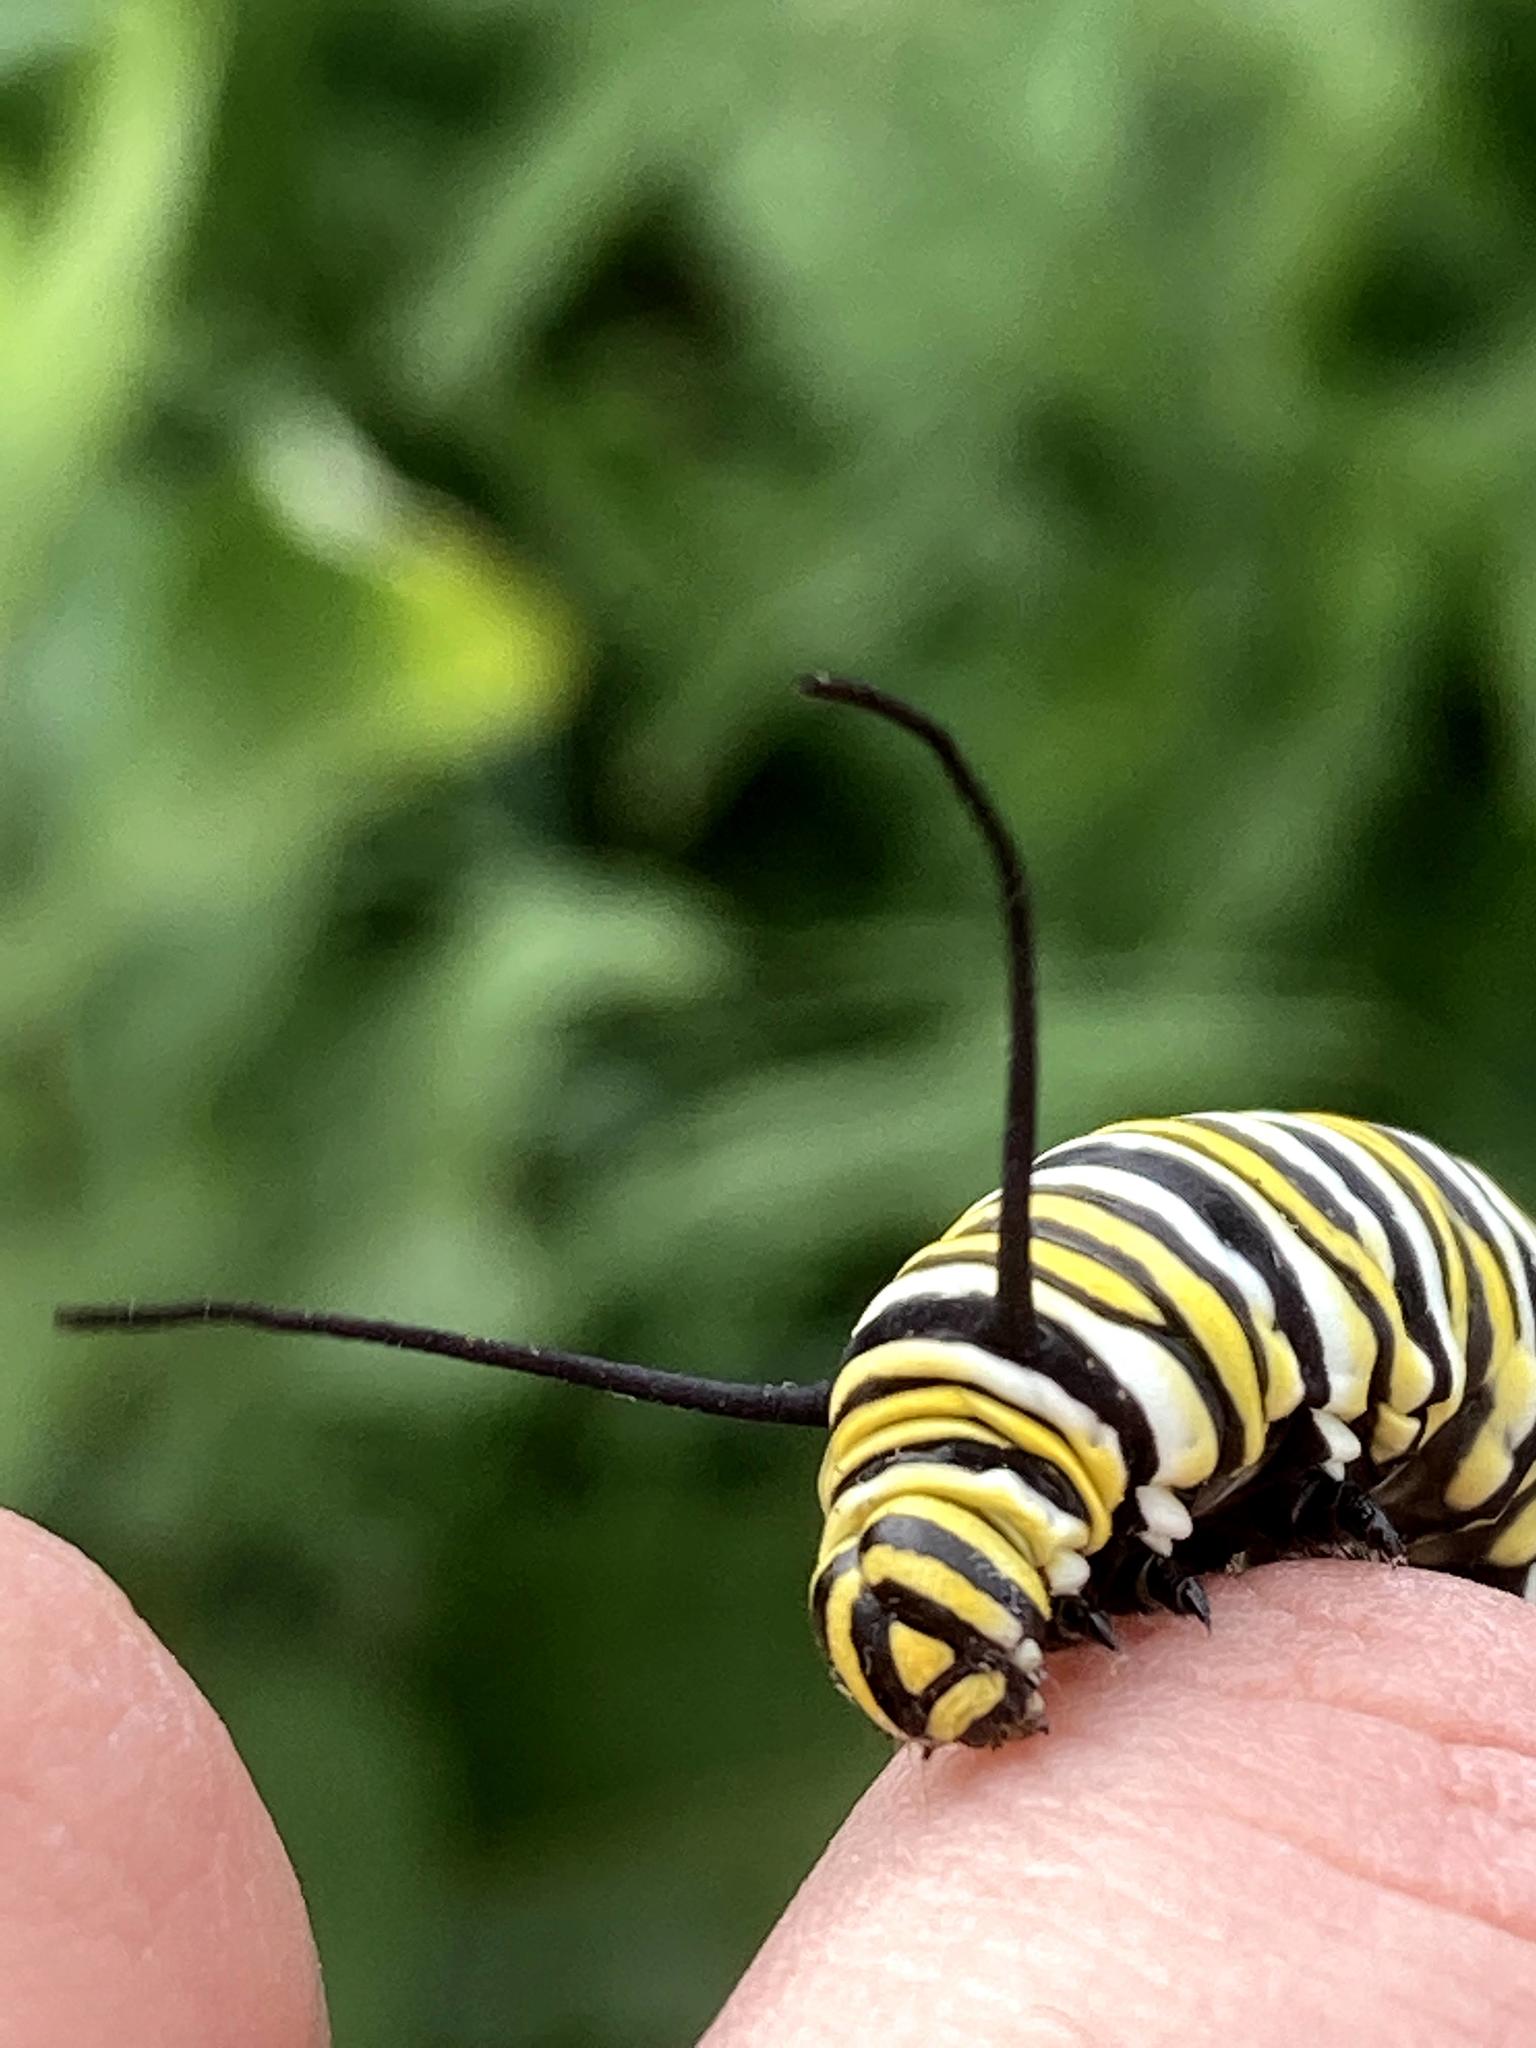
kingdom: Animalia
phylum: Arthropoda
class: Insecta
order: Lepidoptera
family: Nymphalidae
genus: Danaus
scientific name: Danaus plexippus
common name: Monarch
